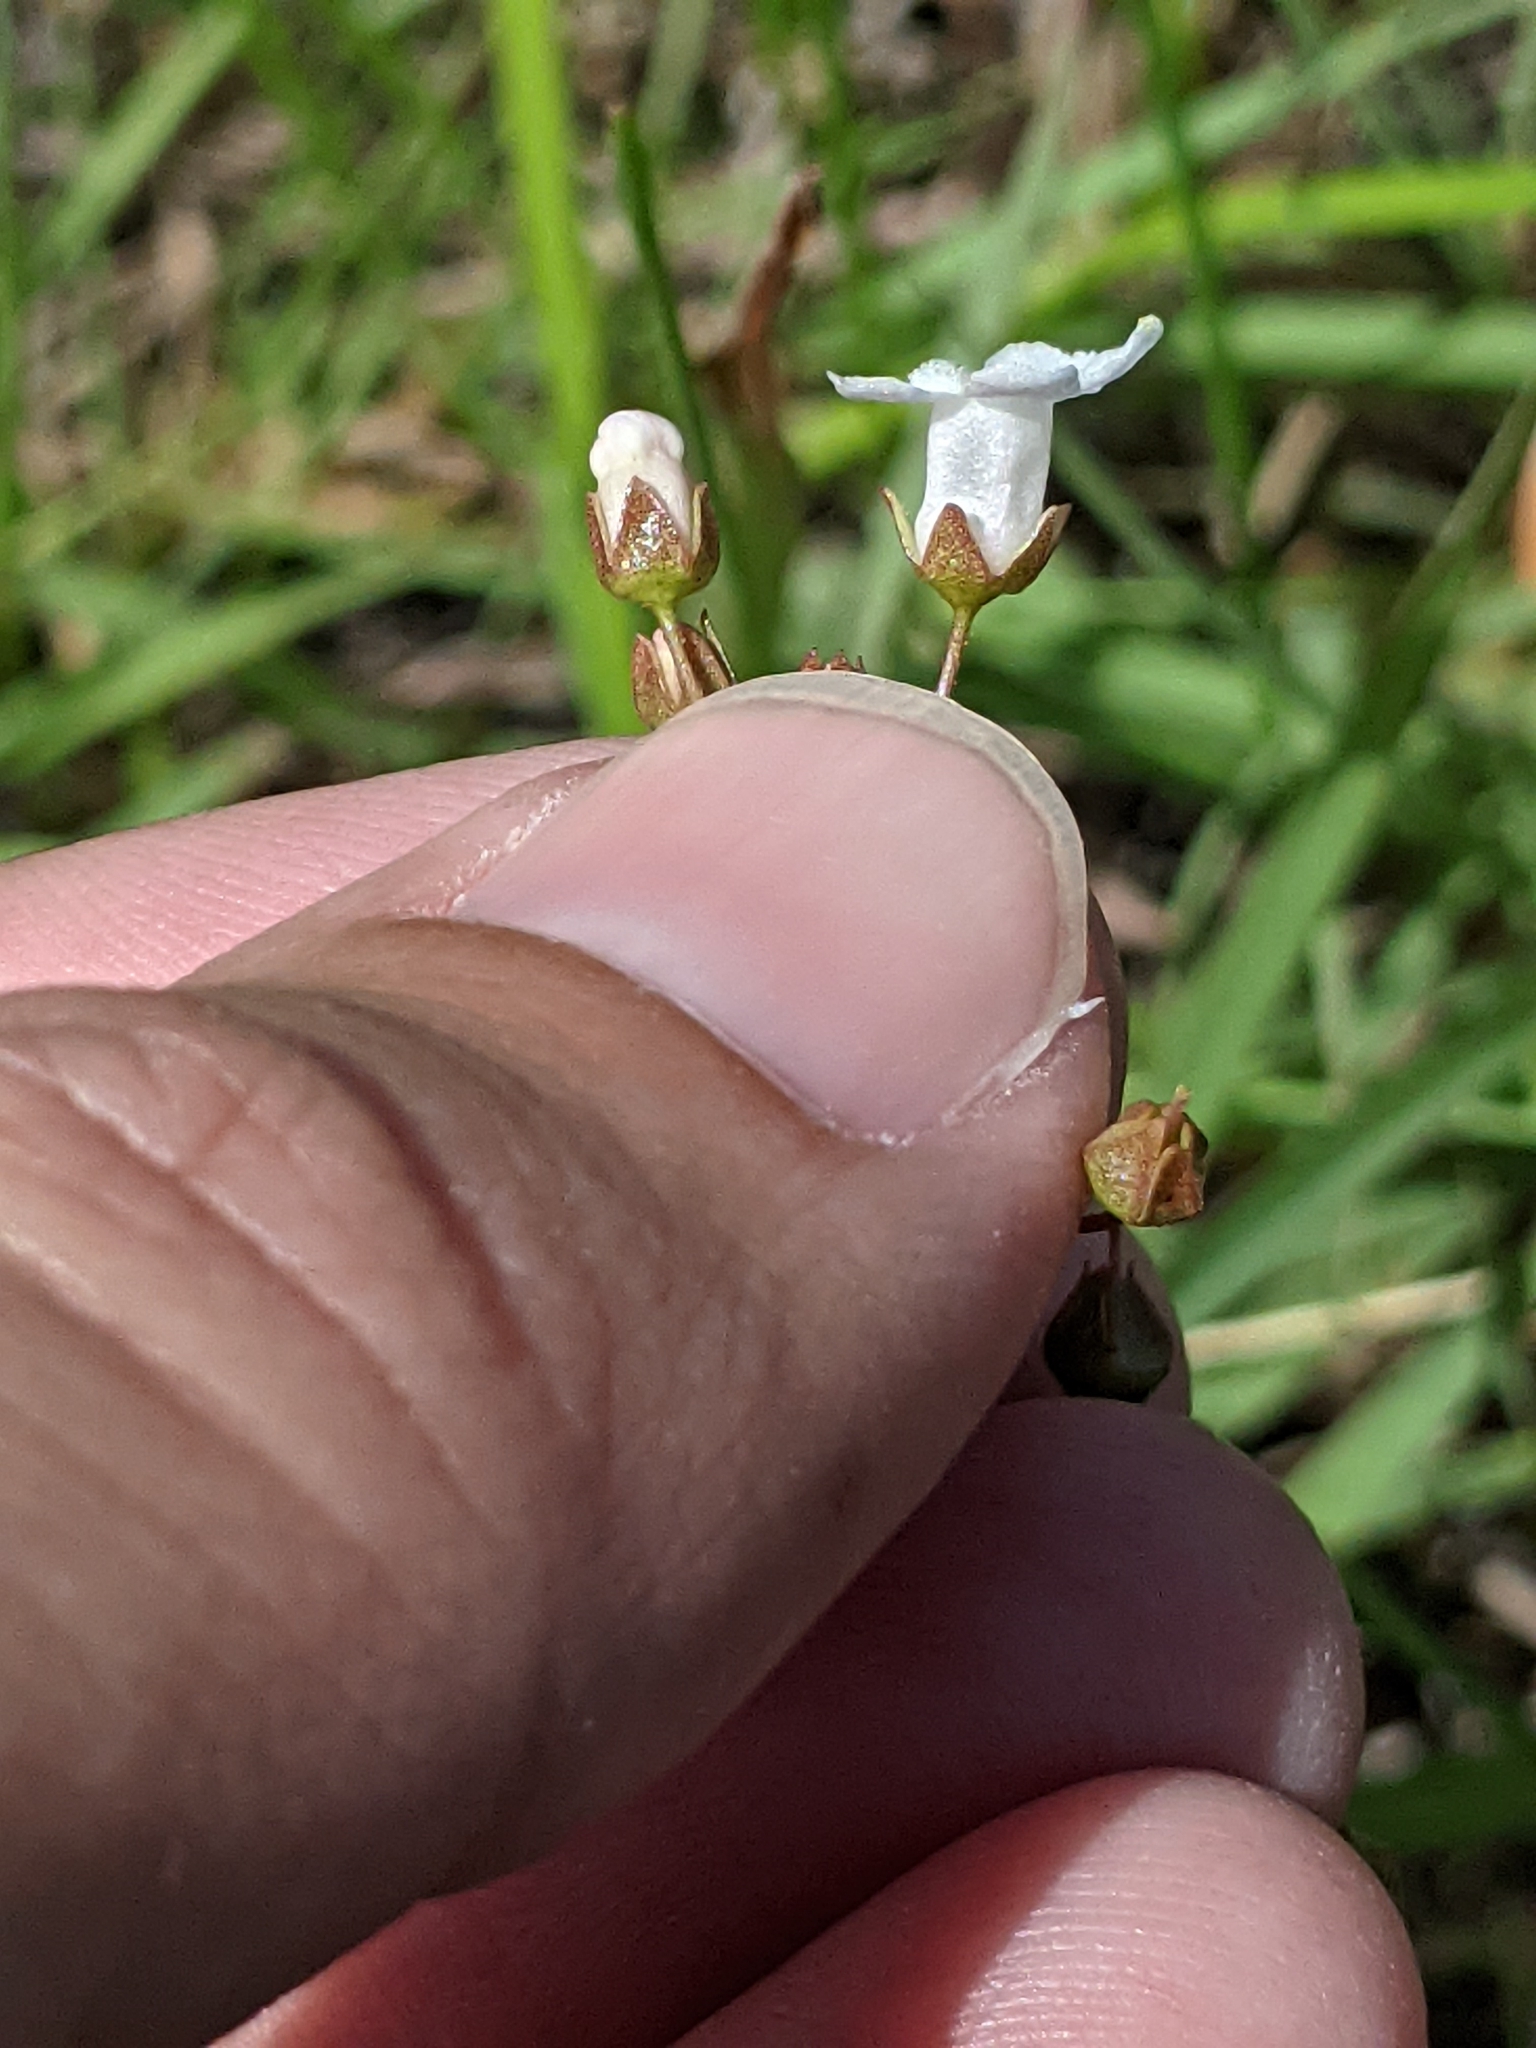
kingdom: Plantae
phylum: Tracheophyta
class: Magnoliopsida
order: Ericales
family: Primulaceae
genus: Samolus
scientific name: Samolus ebracteatus
